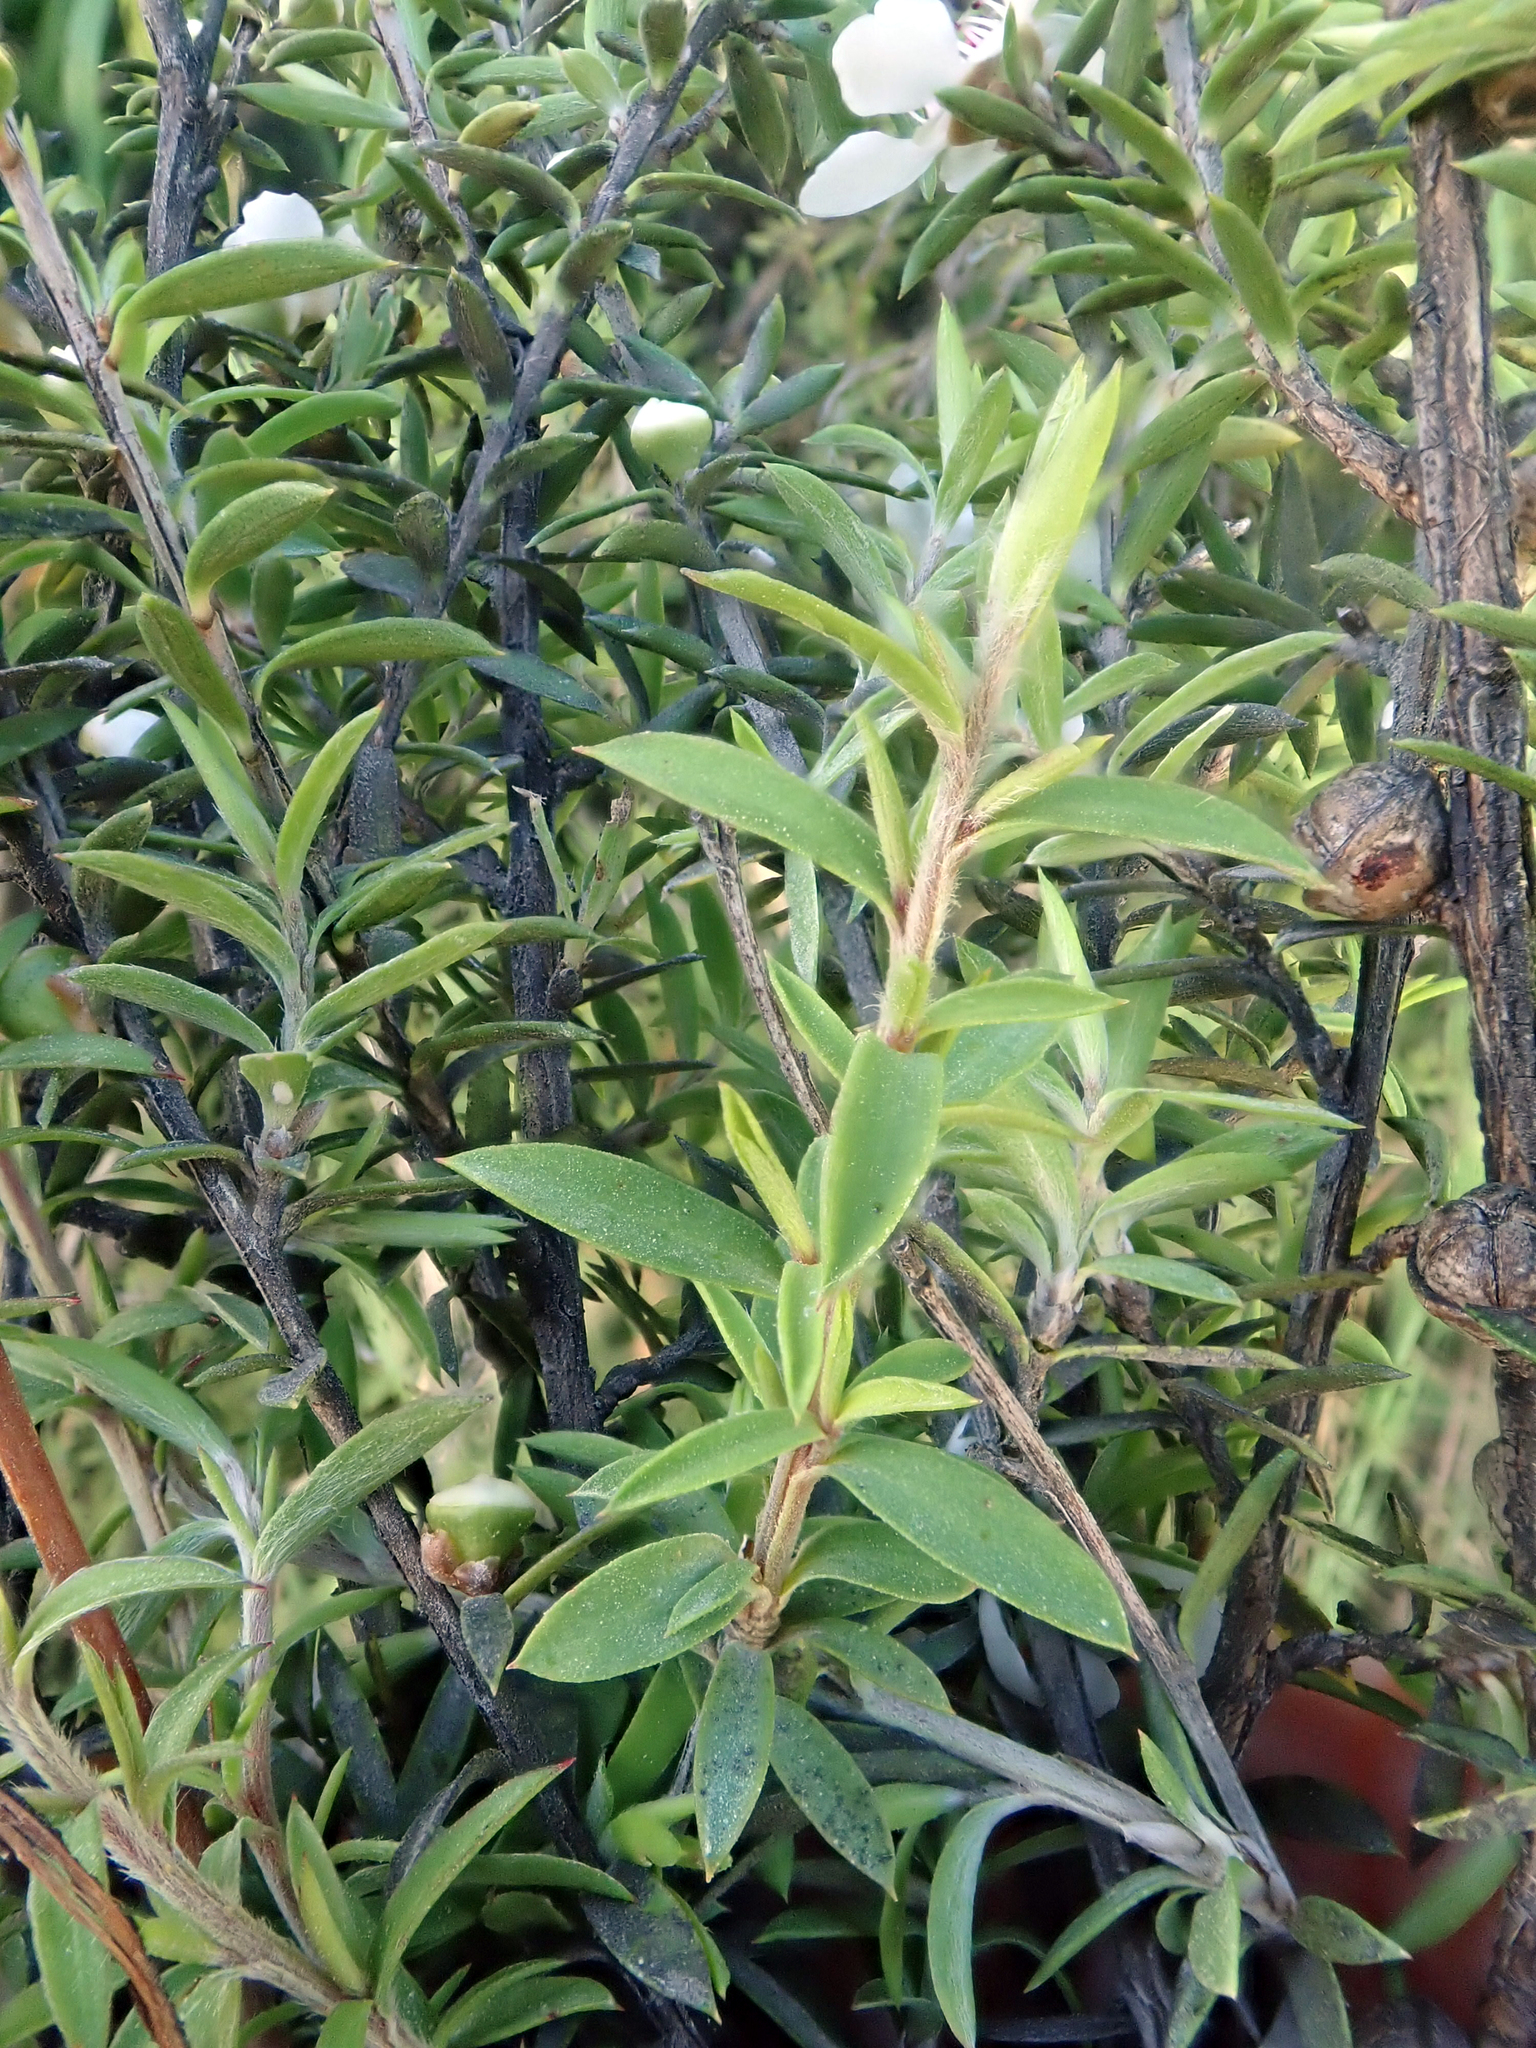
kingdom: Plantae
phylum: Tracheophyta
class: Magnoliopsida
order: Myrtales
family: Myrtaceae
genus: Leptospermum
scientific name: Leptospermum scoparium
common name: Broom tea-tree
